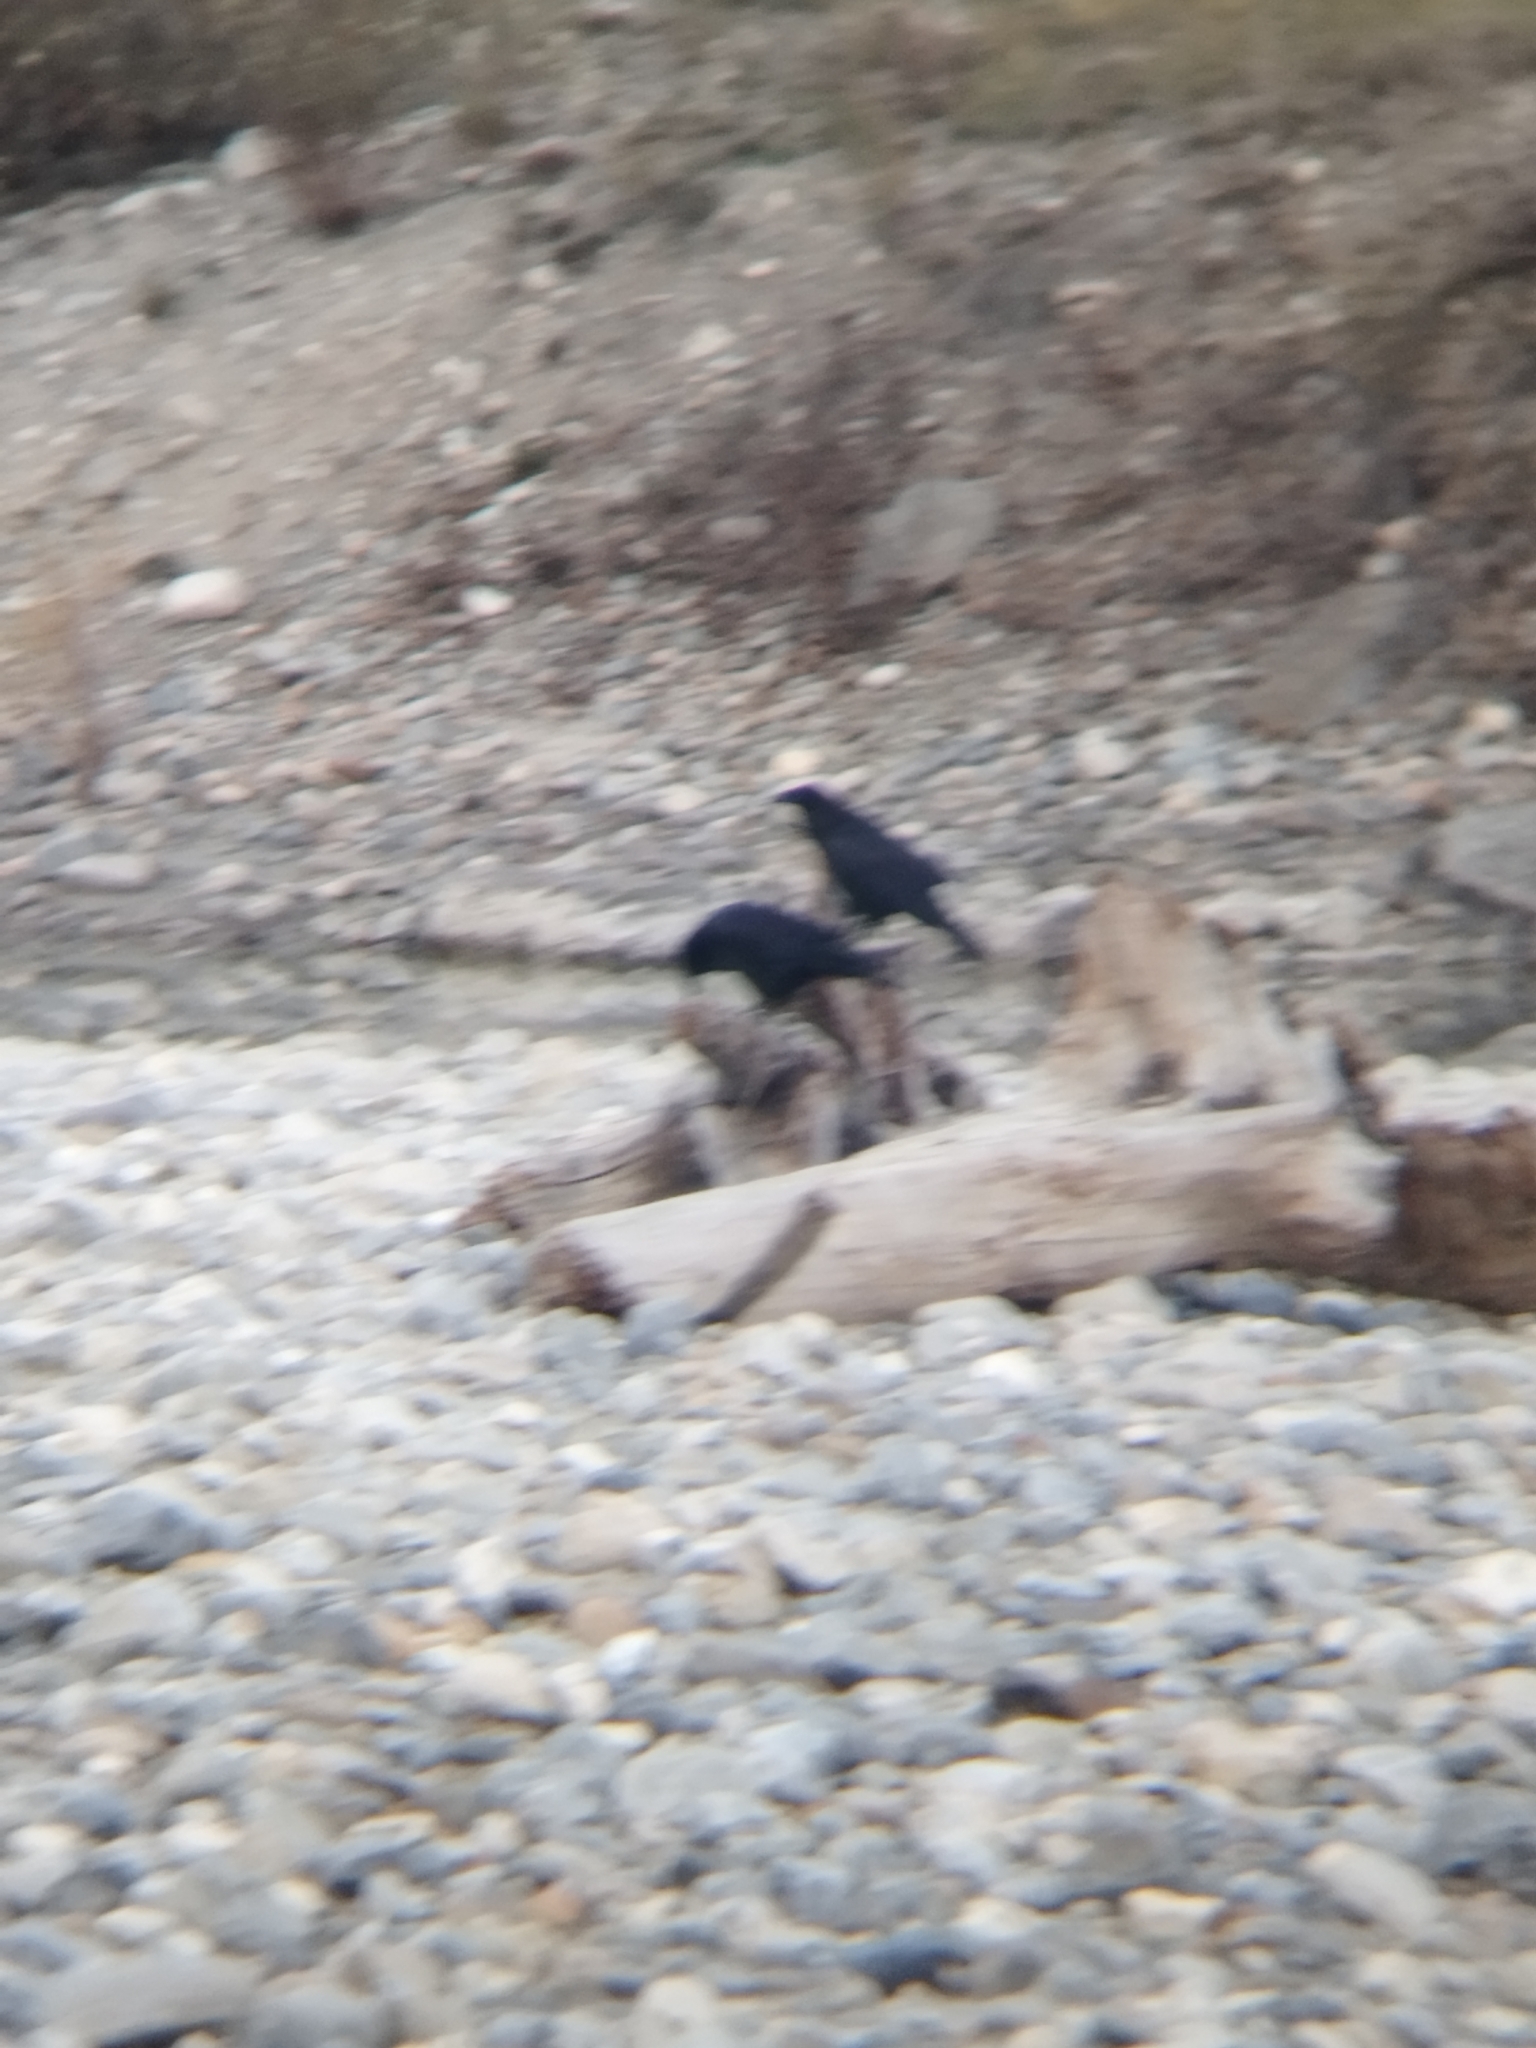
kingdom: Animalia
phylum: Chordata
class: Aves
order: Passeriformes
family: Corvidae
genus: Corvus
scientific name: Corvus corax
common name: Common raven
